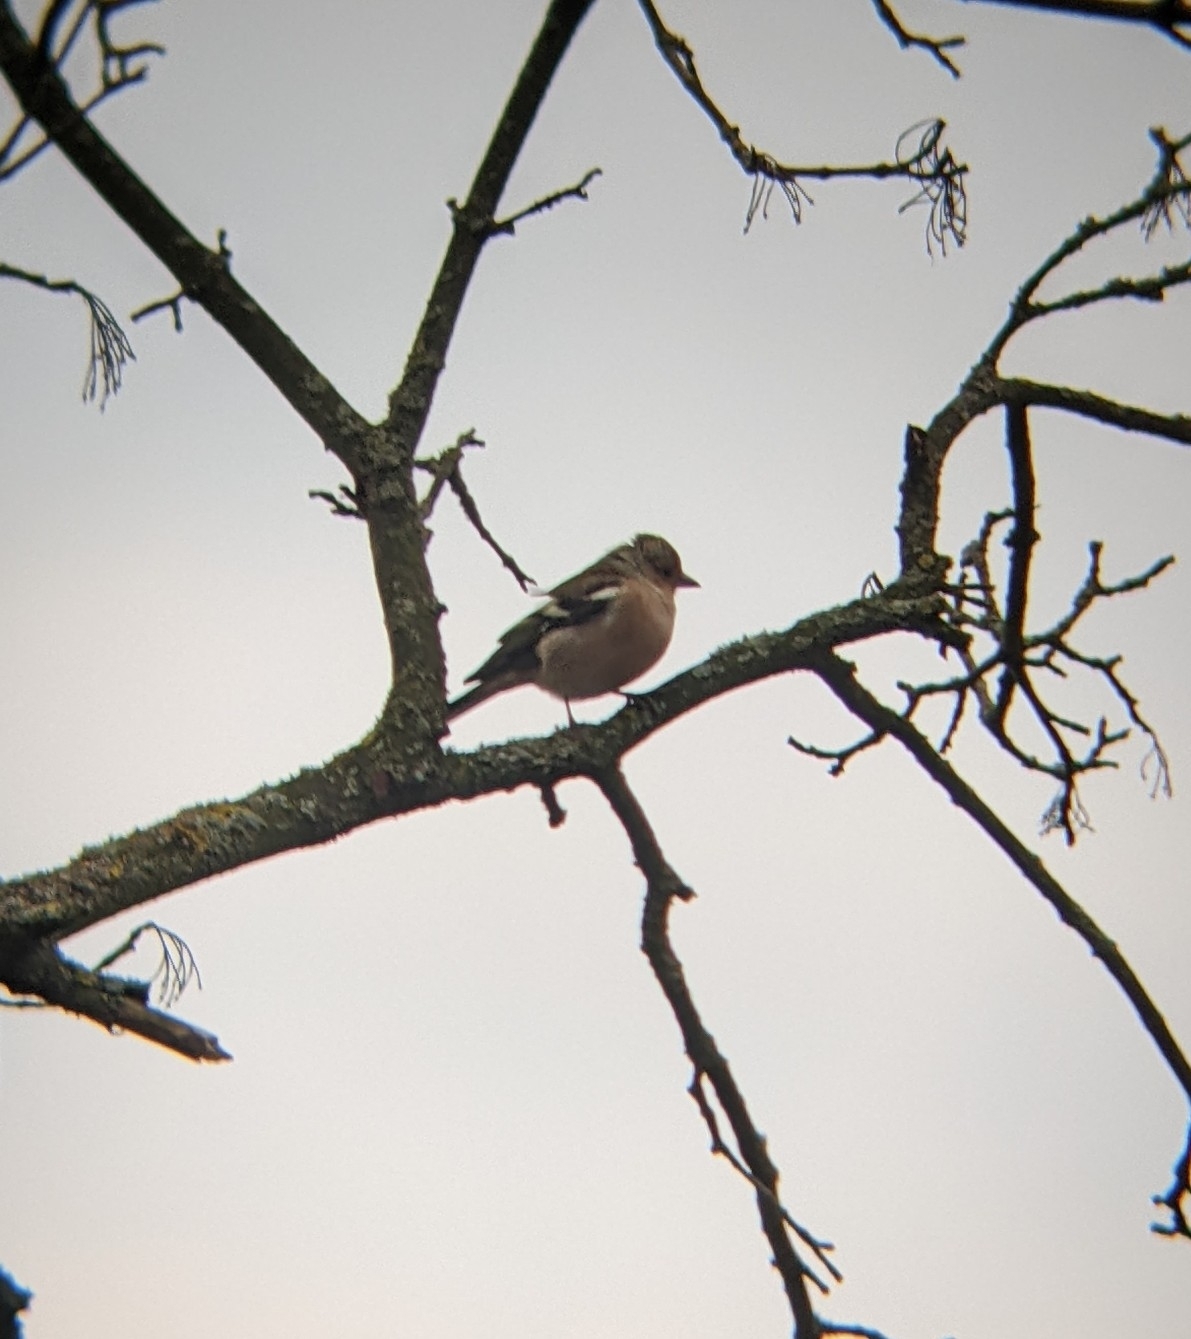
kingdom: Animalia
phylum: Chordata
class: Aves
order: Passeriformes
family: Fringillidae
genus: Fringilla
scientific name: Fringilla coelebs
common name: Common chaffinch
